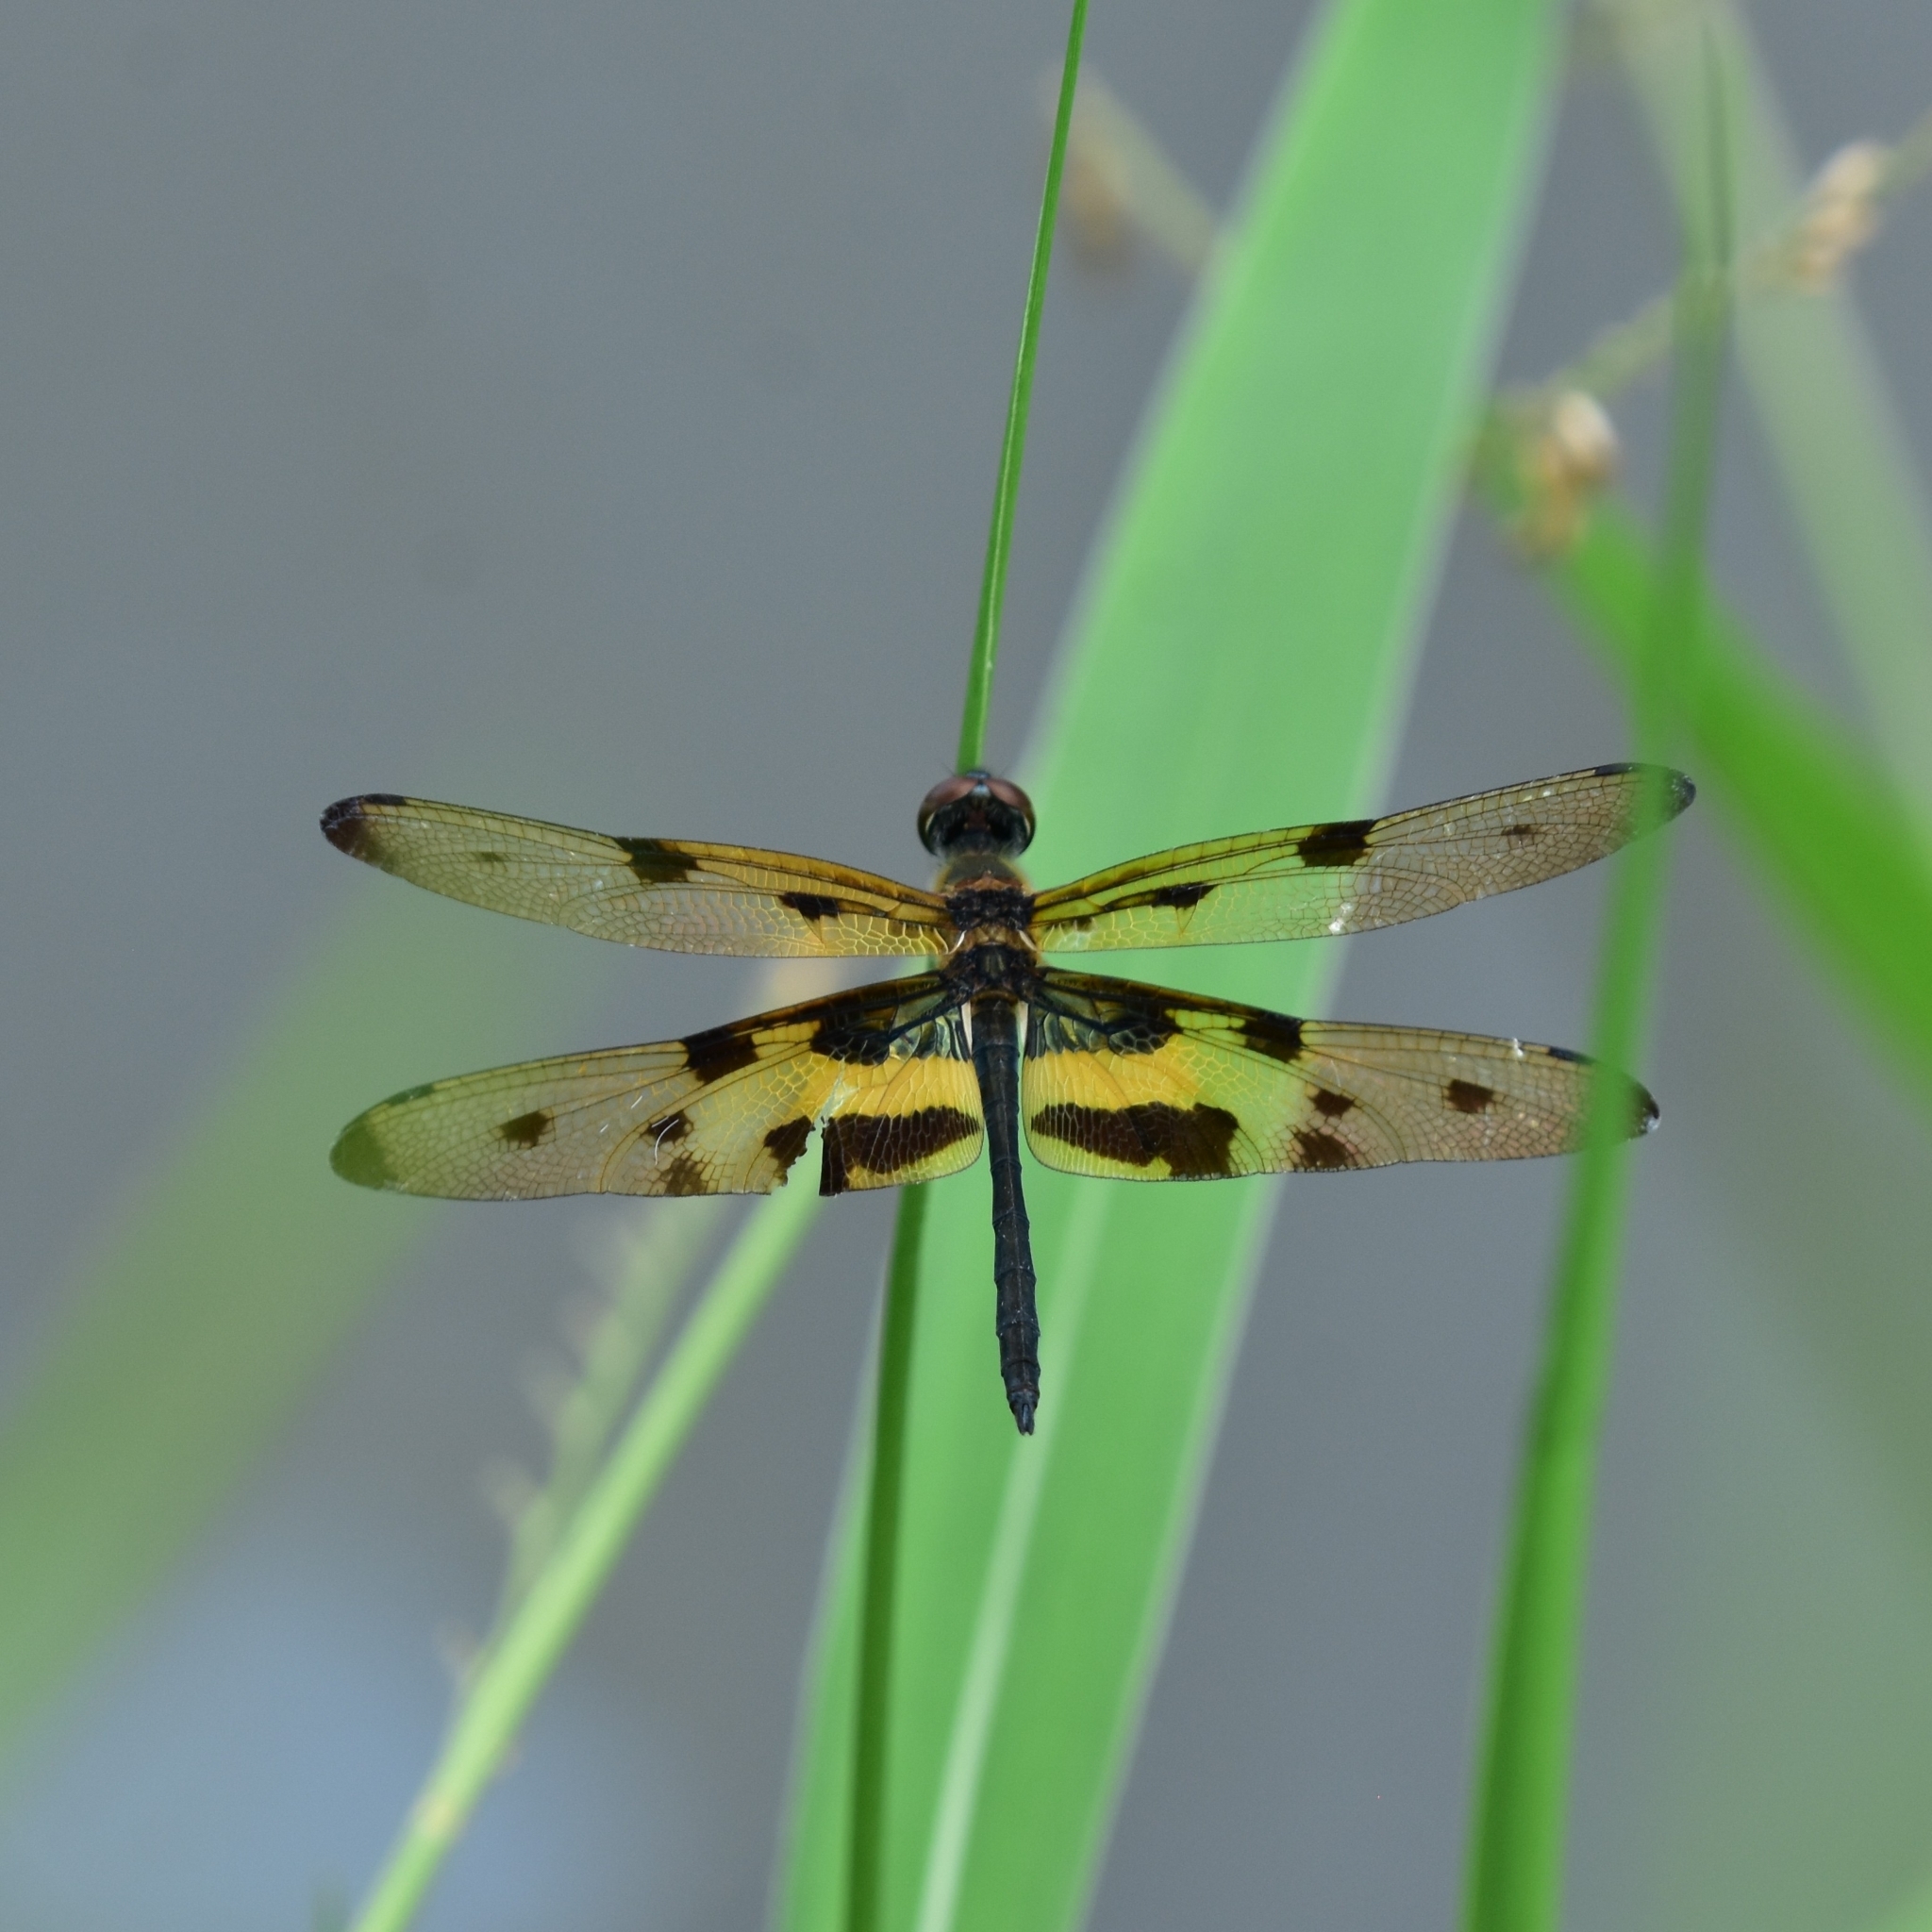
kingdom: Animalia
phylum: Arthropoda
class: Insecta
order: Odonata
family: Libellulidae
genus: Rhyothemis
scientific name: Rhyothemis variegata
